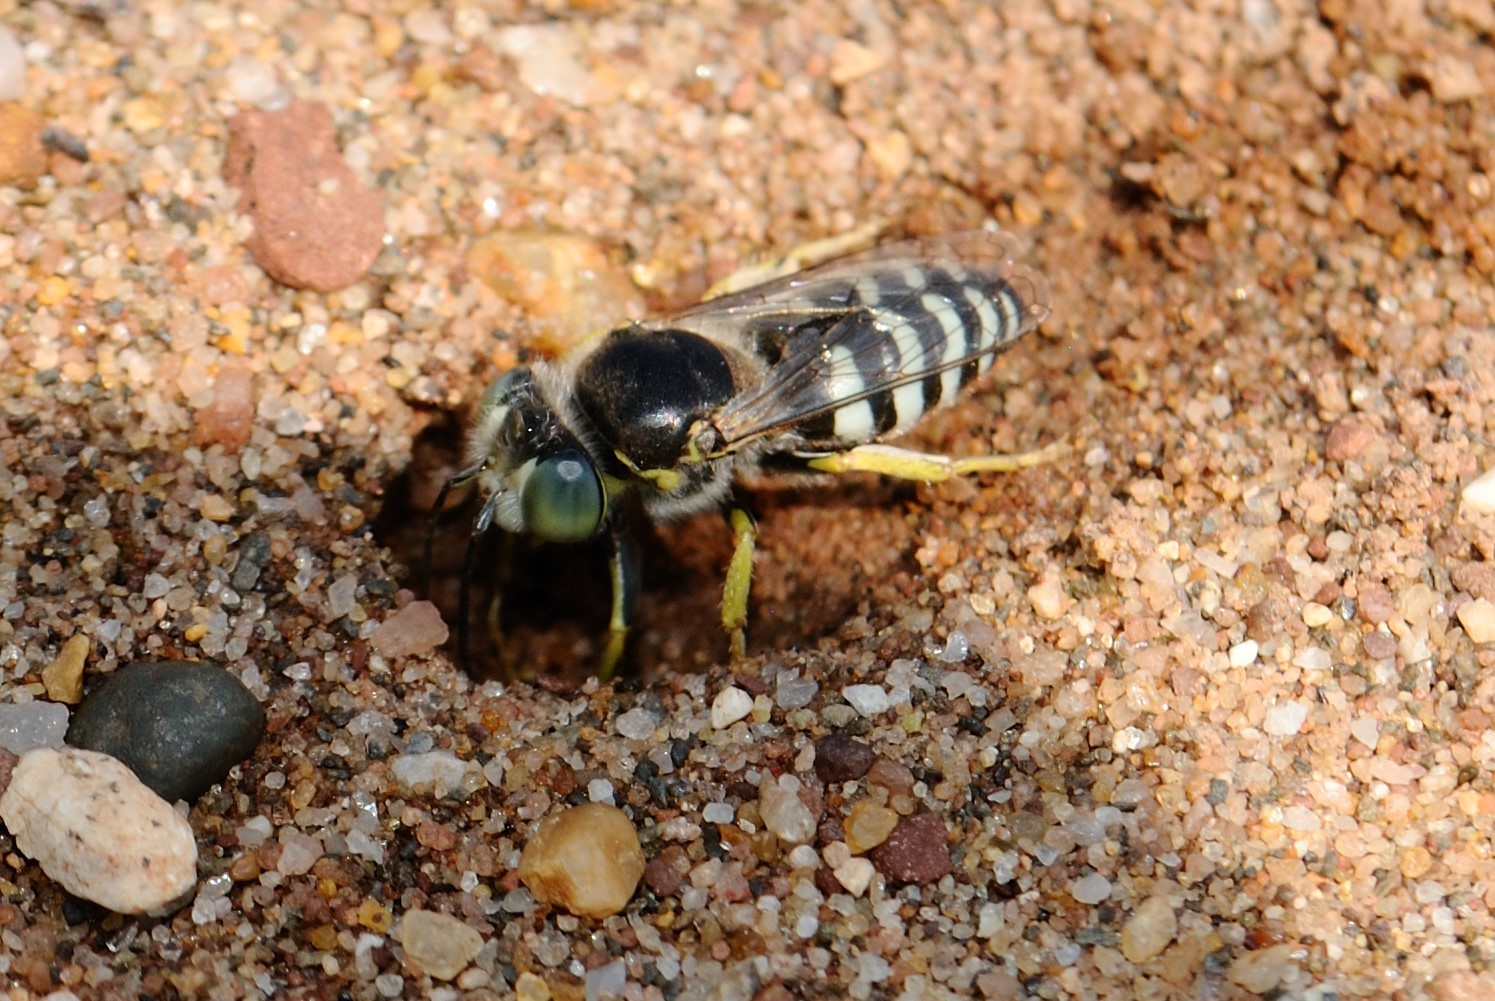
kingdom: Animalia
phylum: Arthropoda
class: Insecta
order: Hymenoptera
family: Crabronidae
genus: Bembix
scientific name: Bembix americana
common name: American sand wasp
